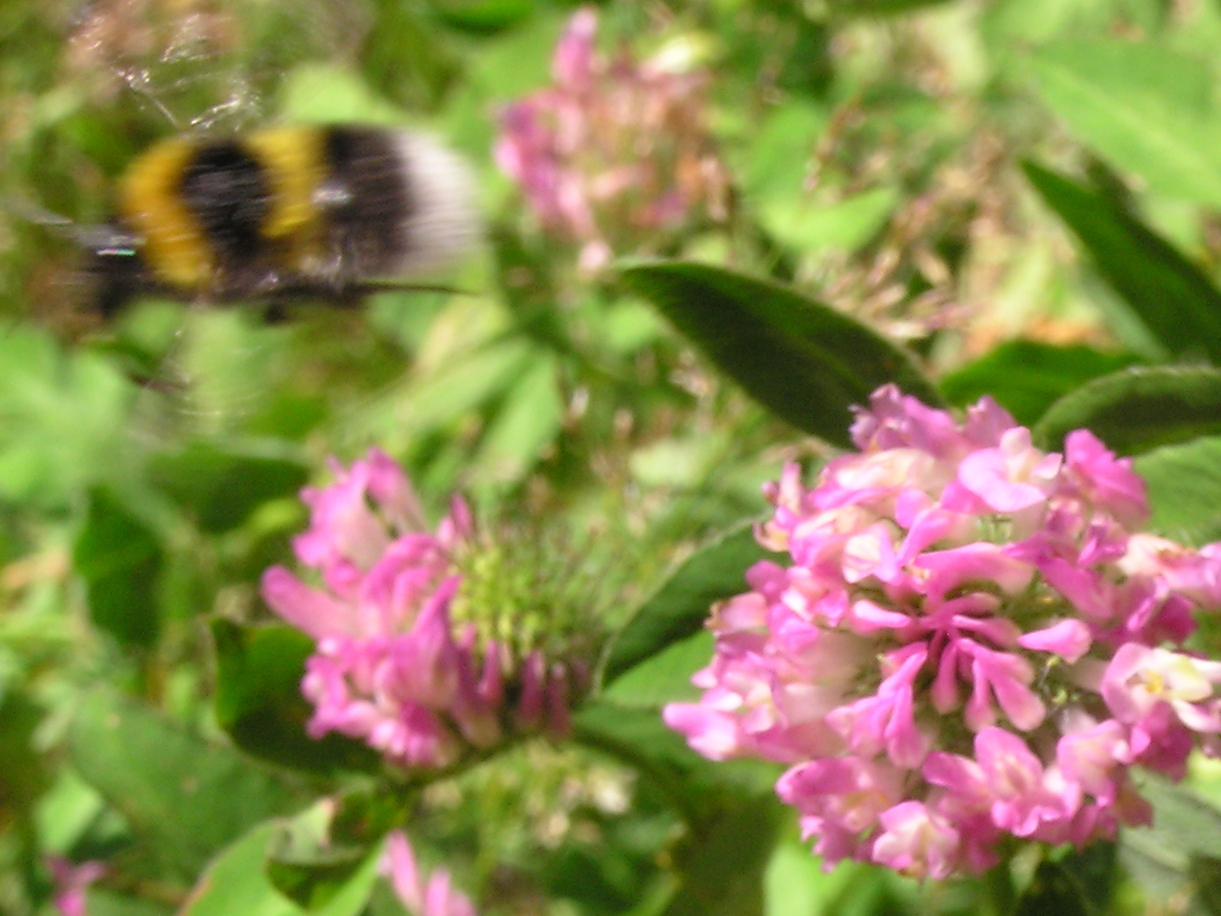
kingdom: Animalia
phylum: Arthropoda
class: Insecta
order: Hymenoptera
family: Apidae
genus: Megabombus
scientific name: Megabombus
